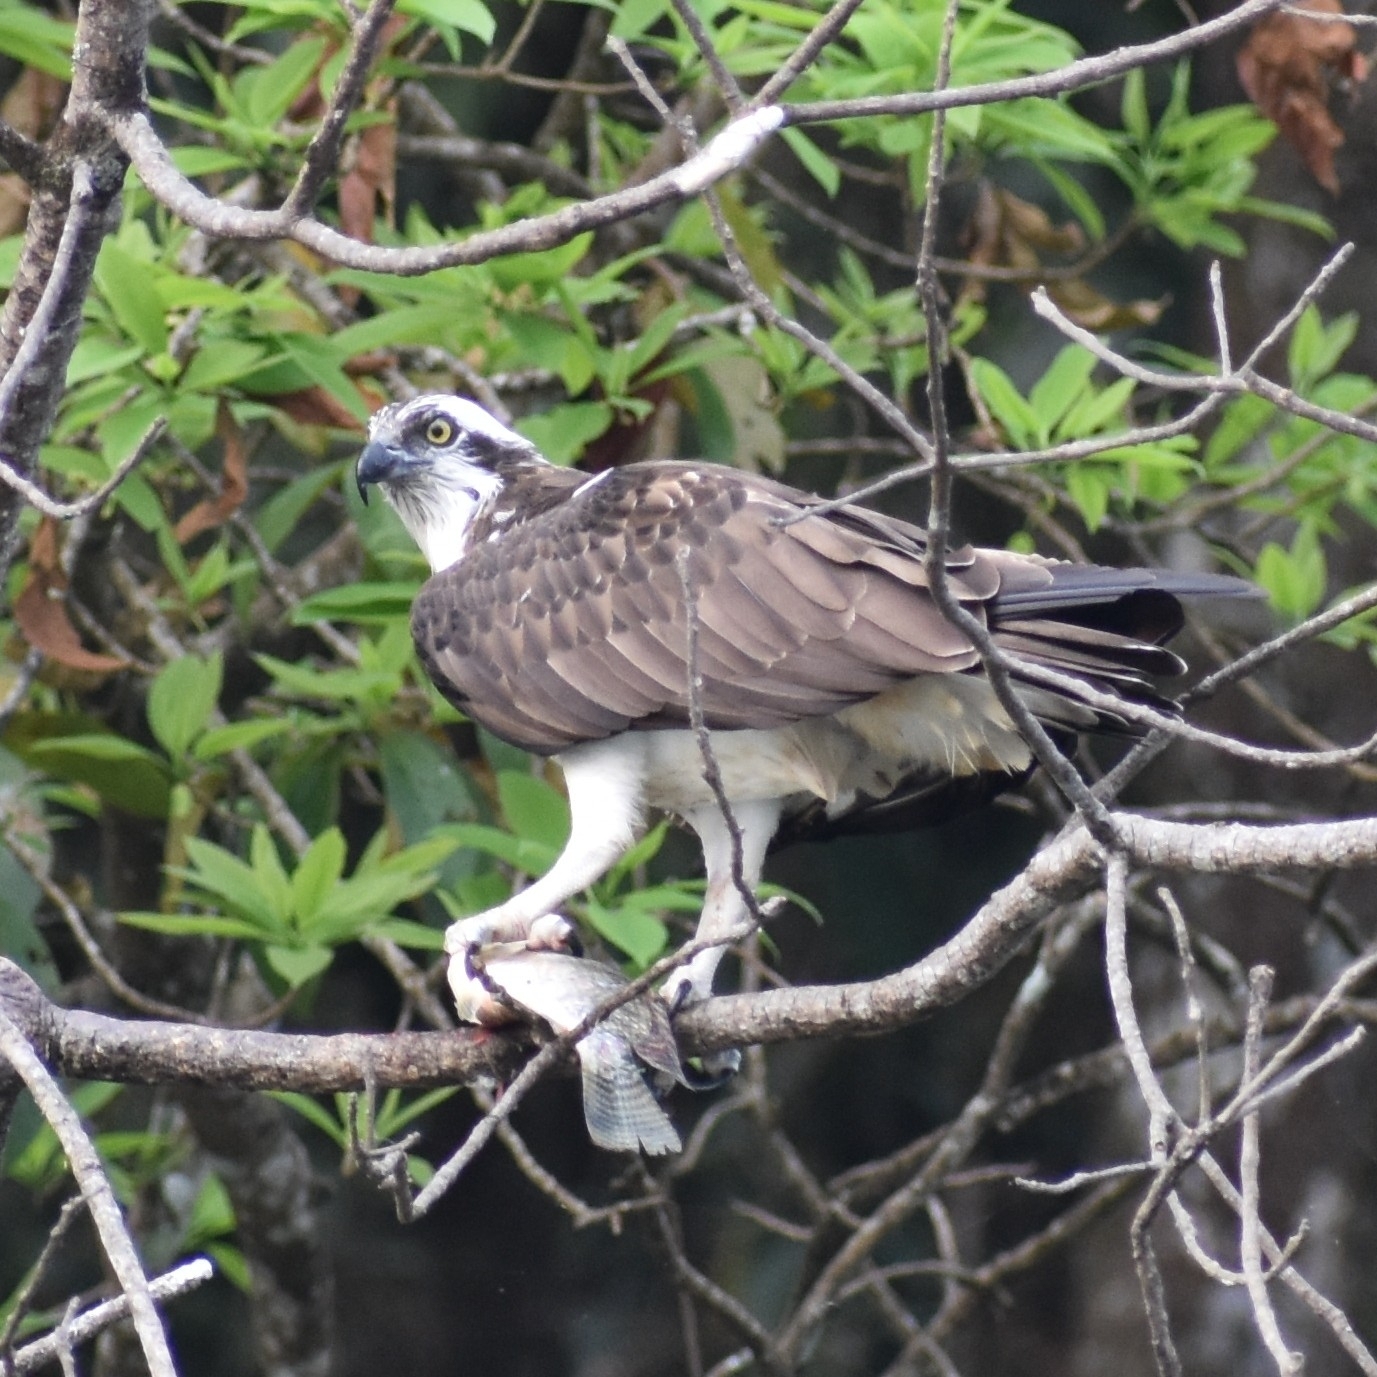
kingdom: Animalia
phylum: Chordata
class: Aves
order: Accipitriformes
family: Pandionidae
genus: Pandion
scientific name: Pandion haliaetus
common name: Osprey
